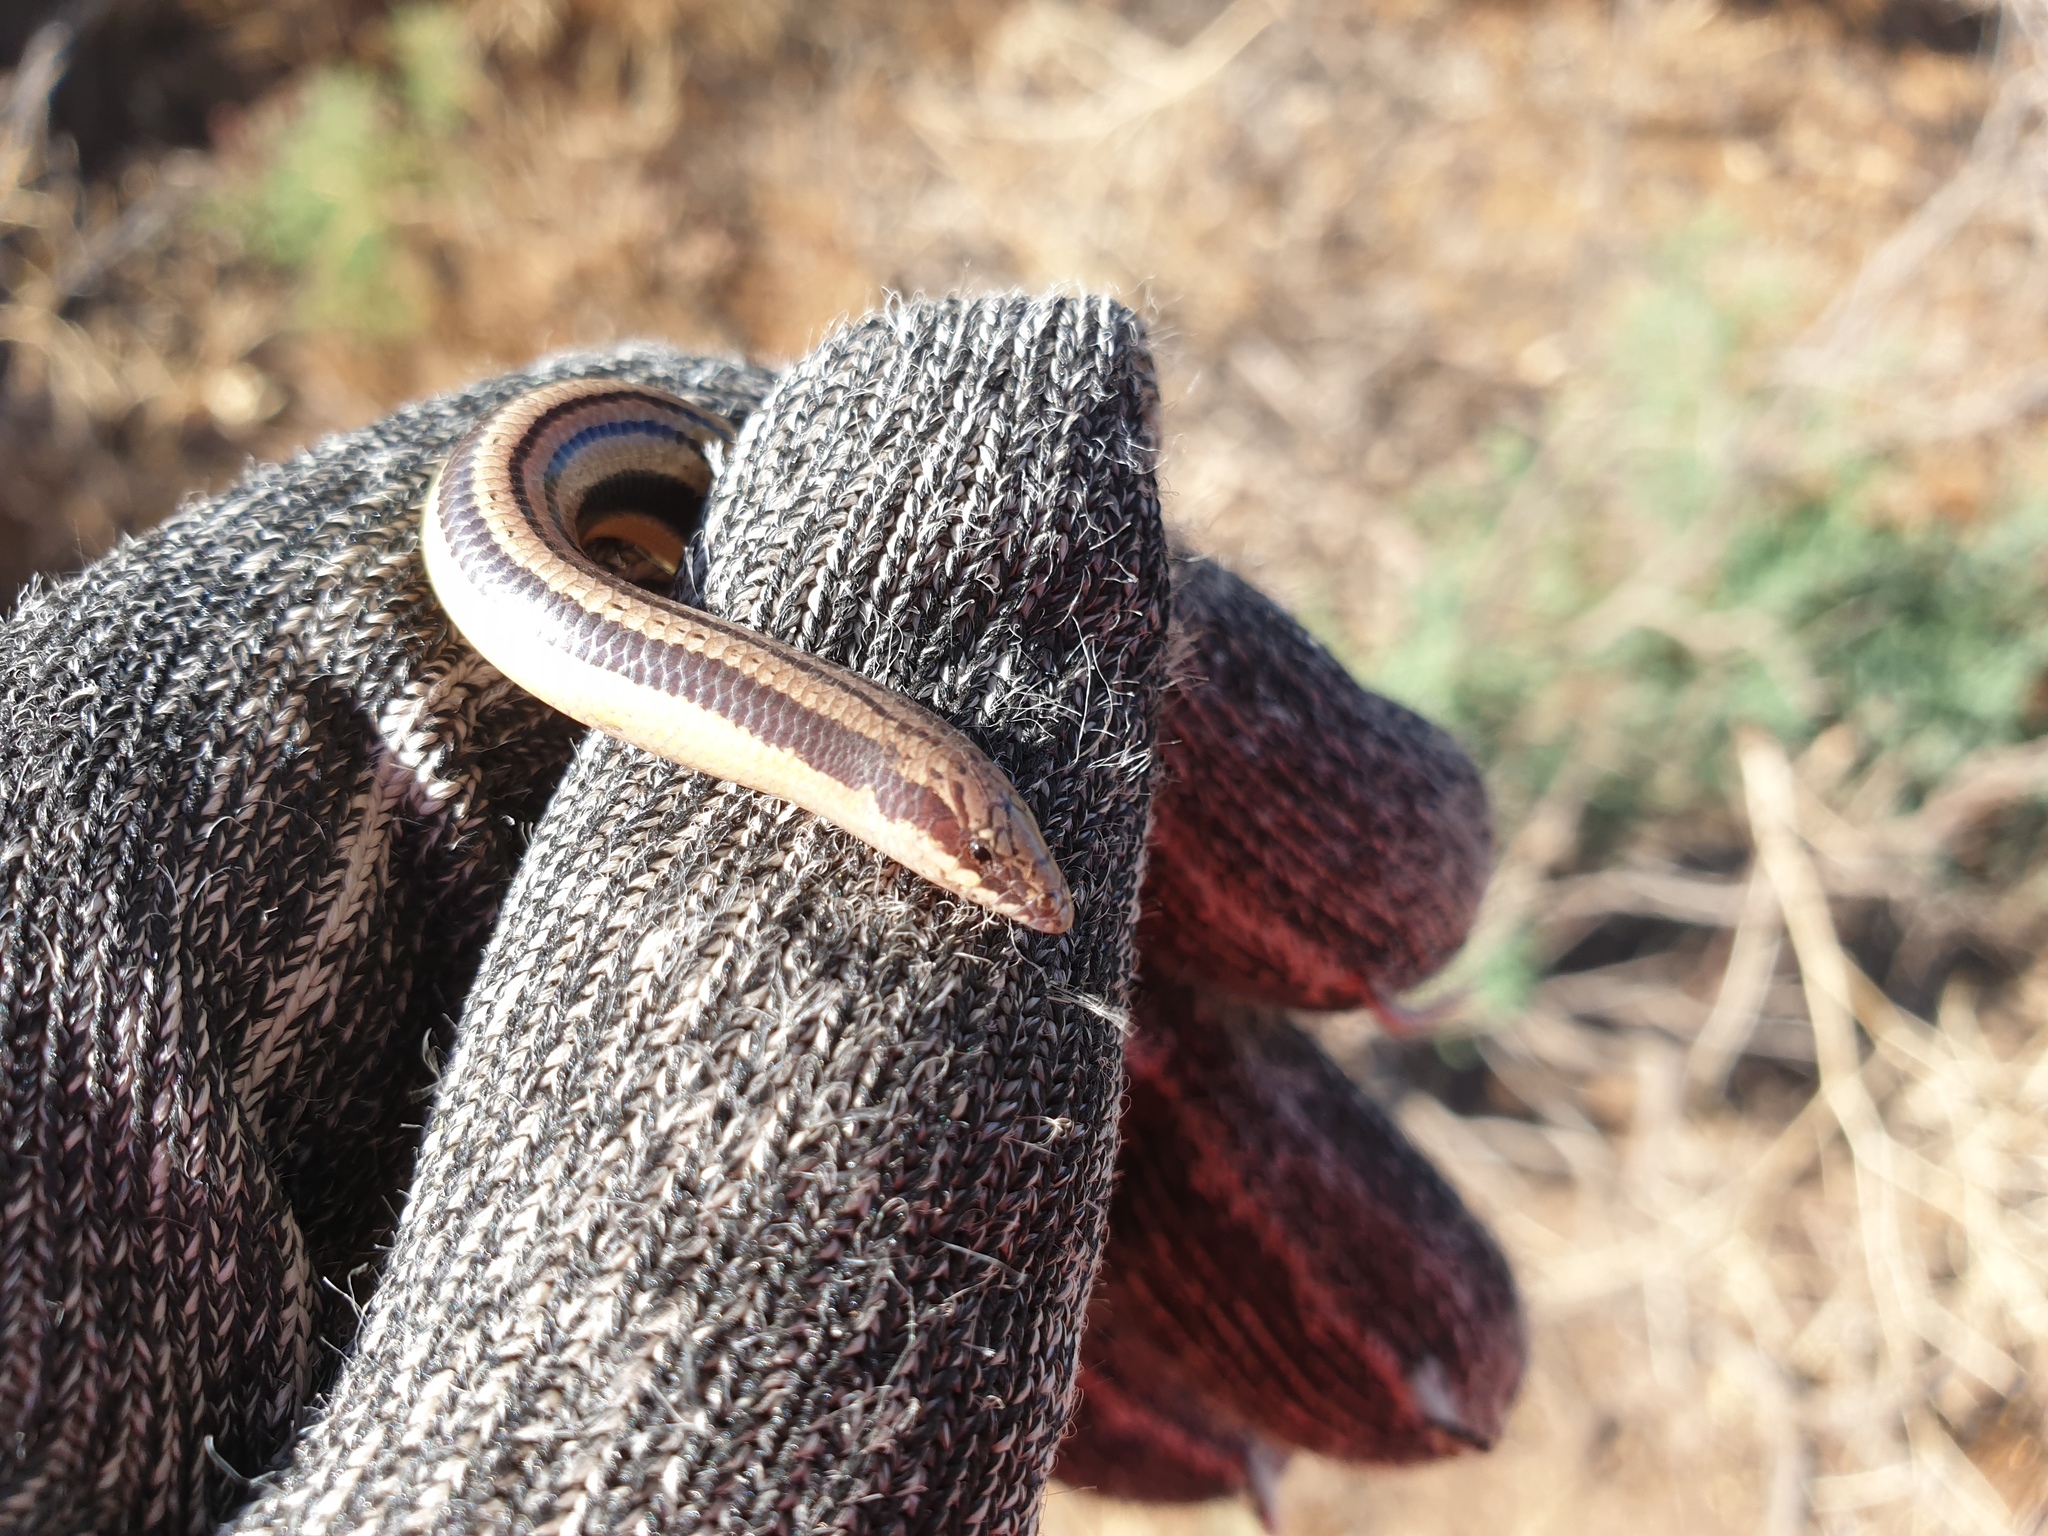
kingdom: Animalia
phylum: Chordata
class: Squamata
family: Scincidae
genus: Lerista
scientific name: Lerista edwardsae
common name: Myall slider
